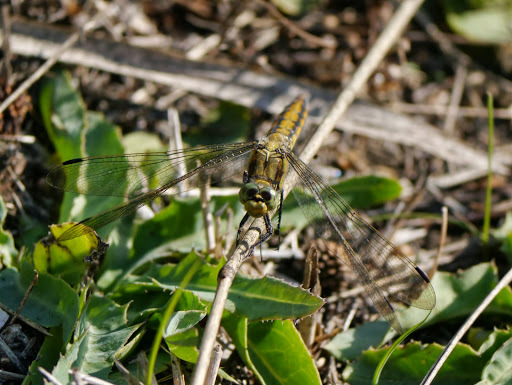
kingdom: Animalia
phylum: Arthropoda
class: Insecta
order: Odonata
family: Libellulidae
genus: Orthetrum
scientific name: Orthetrum cancellatum
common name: Black-tailed skimmer
